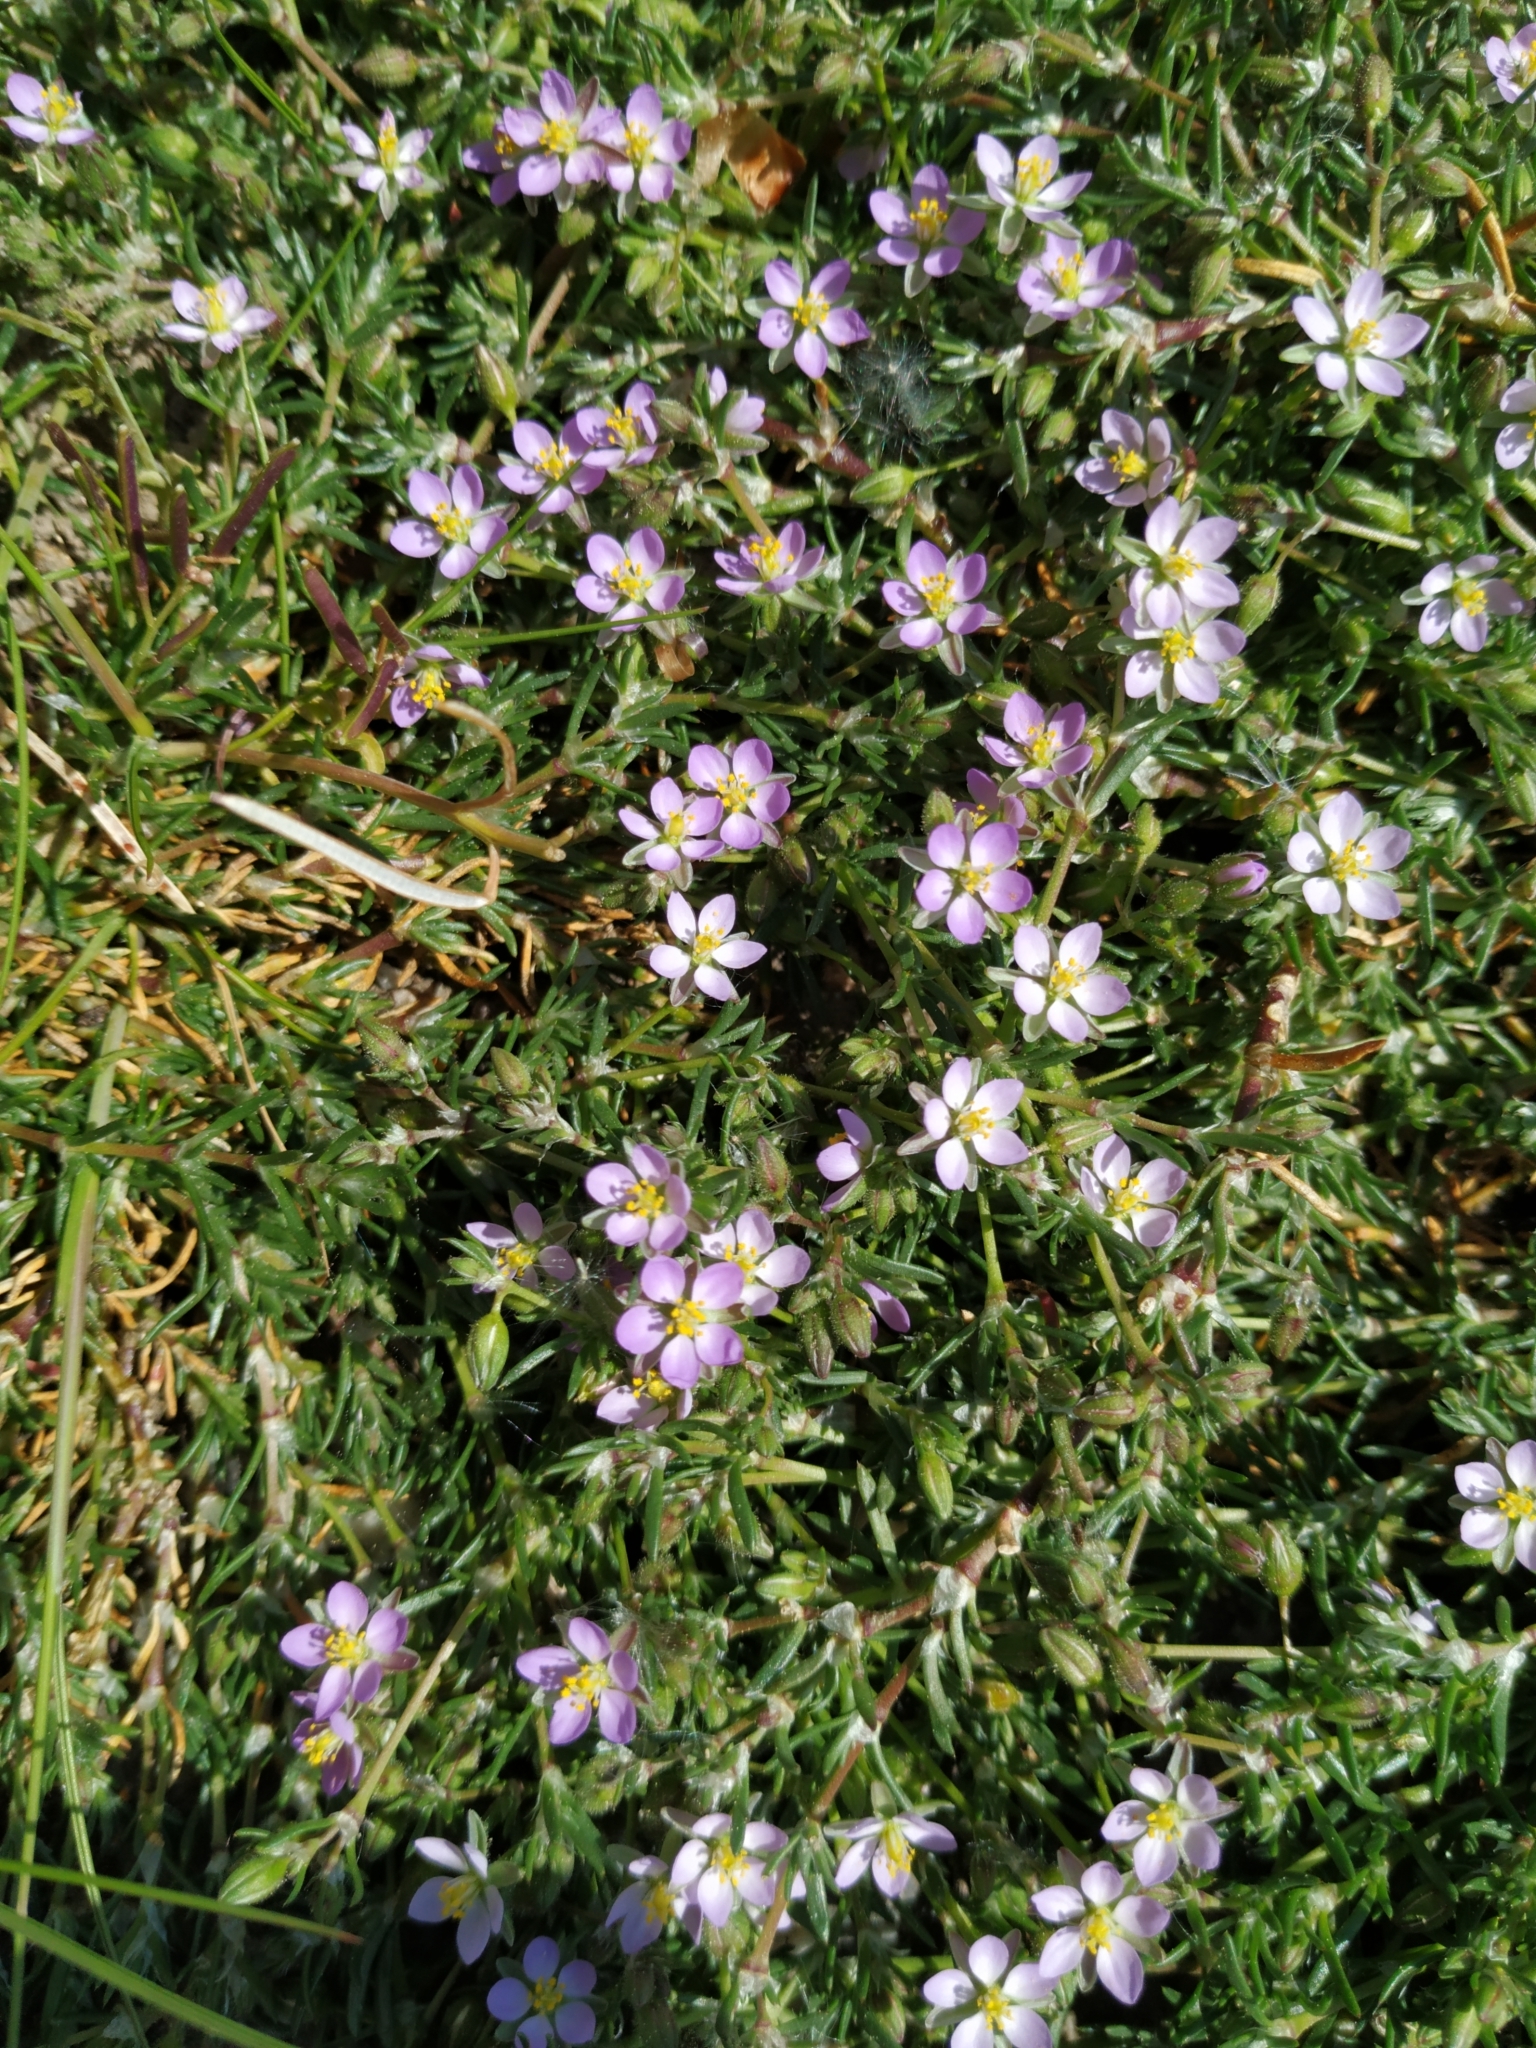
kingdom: Plantae
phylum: Tracheophyta
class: Magnoliopsida
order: Caryophyllales
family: Caryophyllaceae
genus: Spergularia
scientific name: Spergularia rubra
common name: Red sand-spurrey
